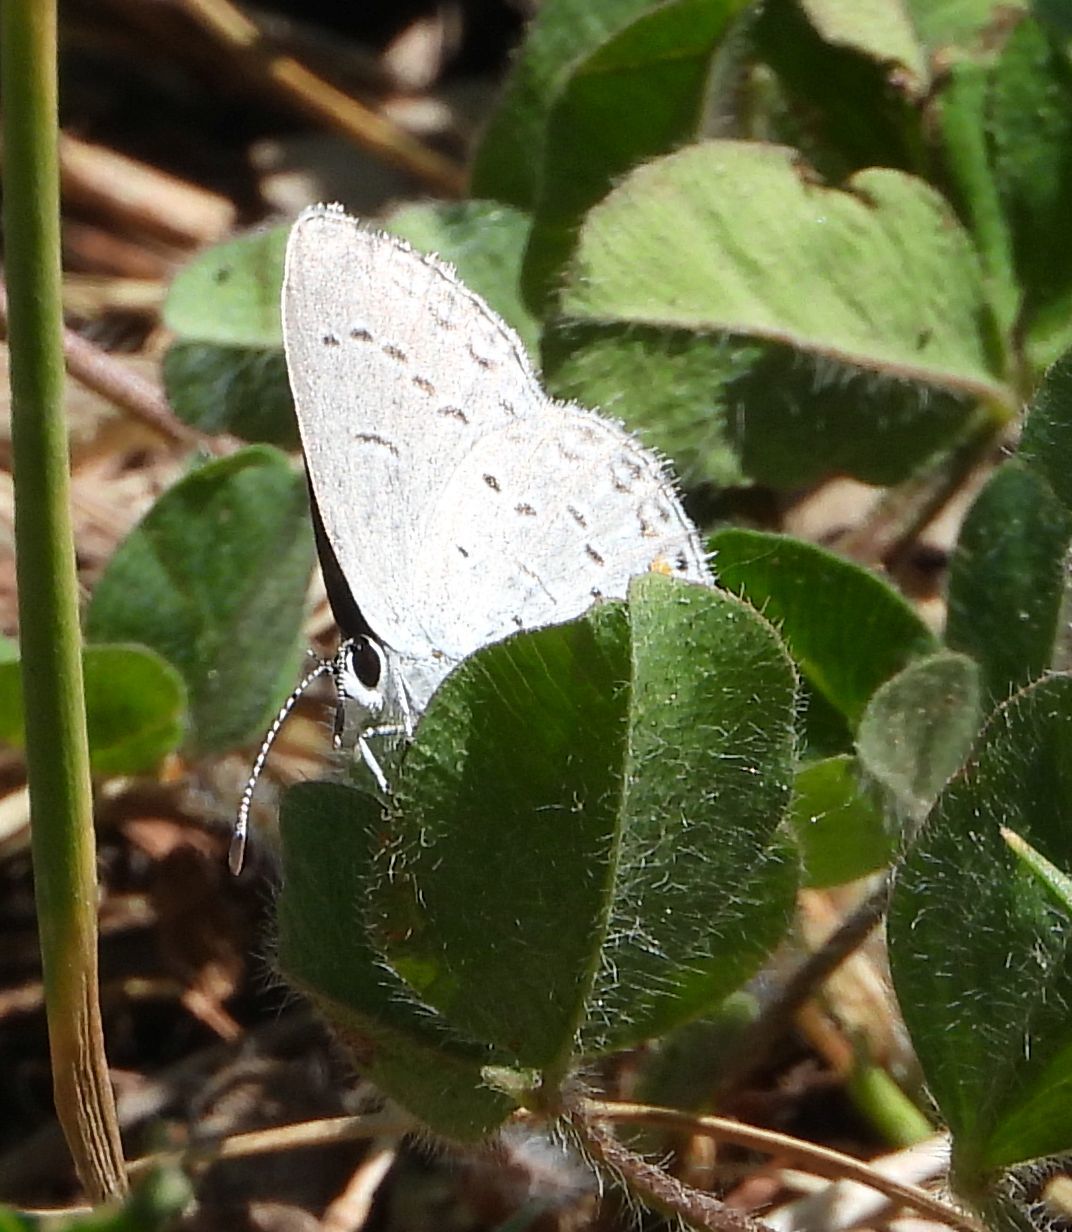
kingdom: Animalia
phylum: Arthropoda
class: Insecta
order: Lepidoptera
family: Lycaenidae
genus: Elkalyce
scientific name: Elkalyce comyntas
